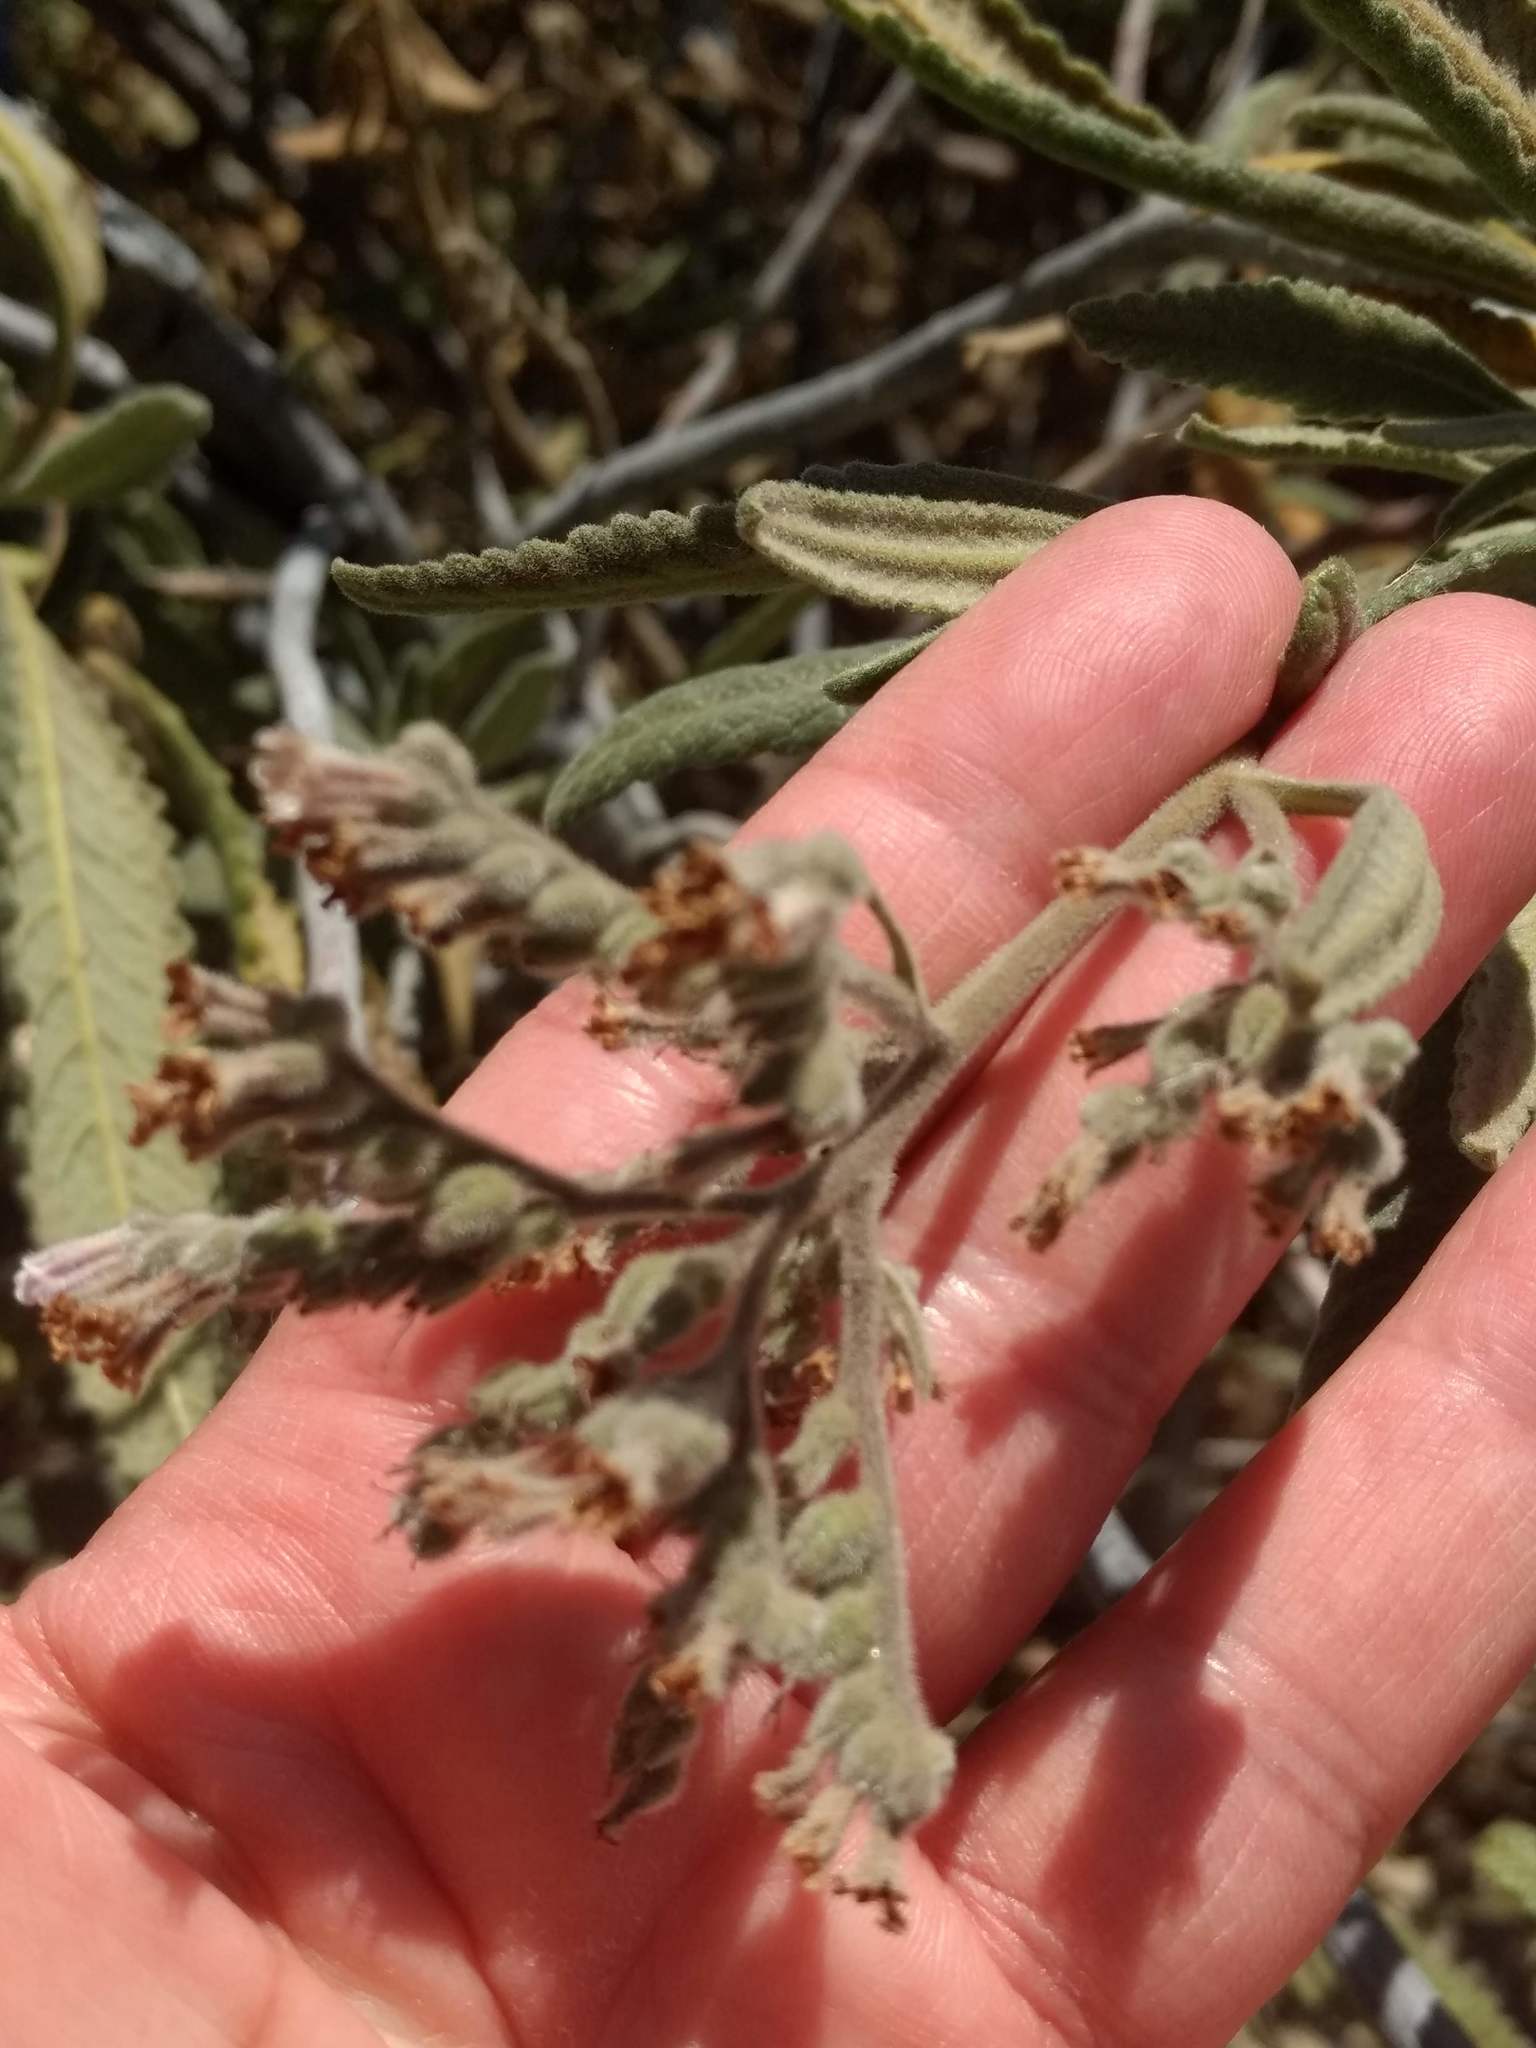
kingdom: Plantae
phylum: Tracheophyta
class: Magnoliopsida
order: Boraginales
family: Namaceae
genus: Eriodictyon
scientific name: Eriodictyon crassifolium
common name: Thick-leaf yerba-santa
